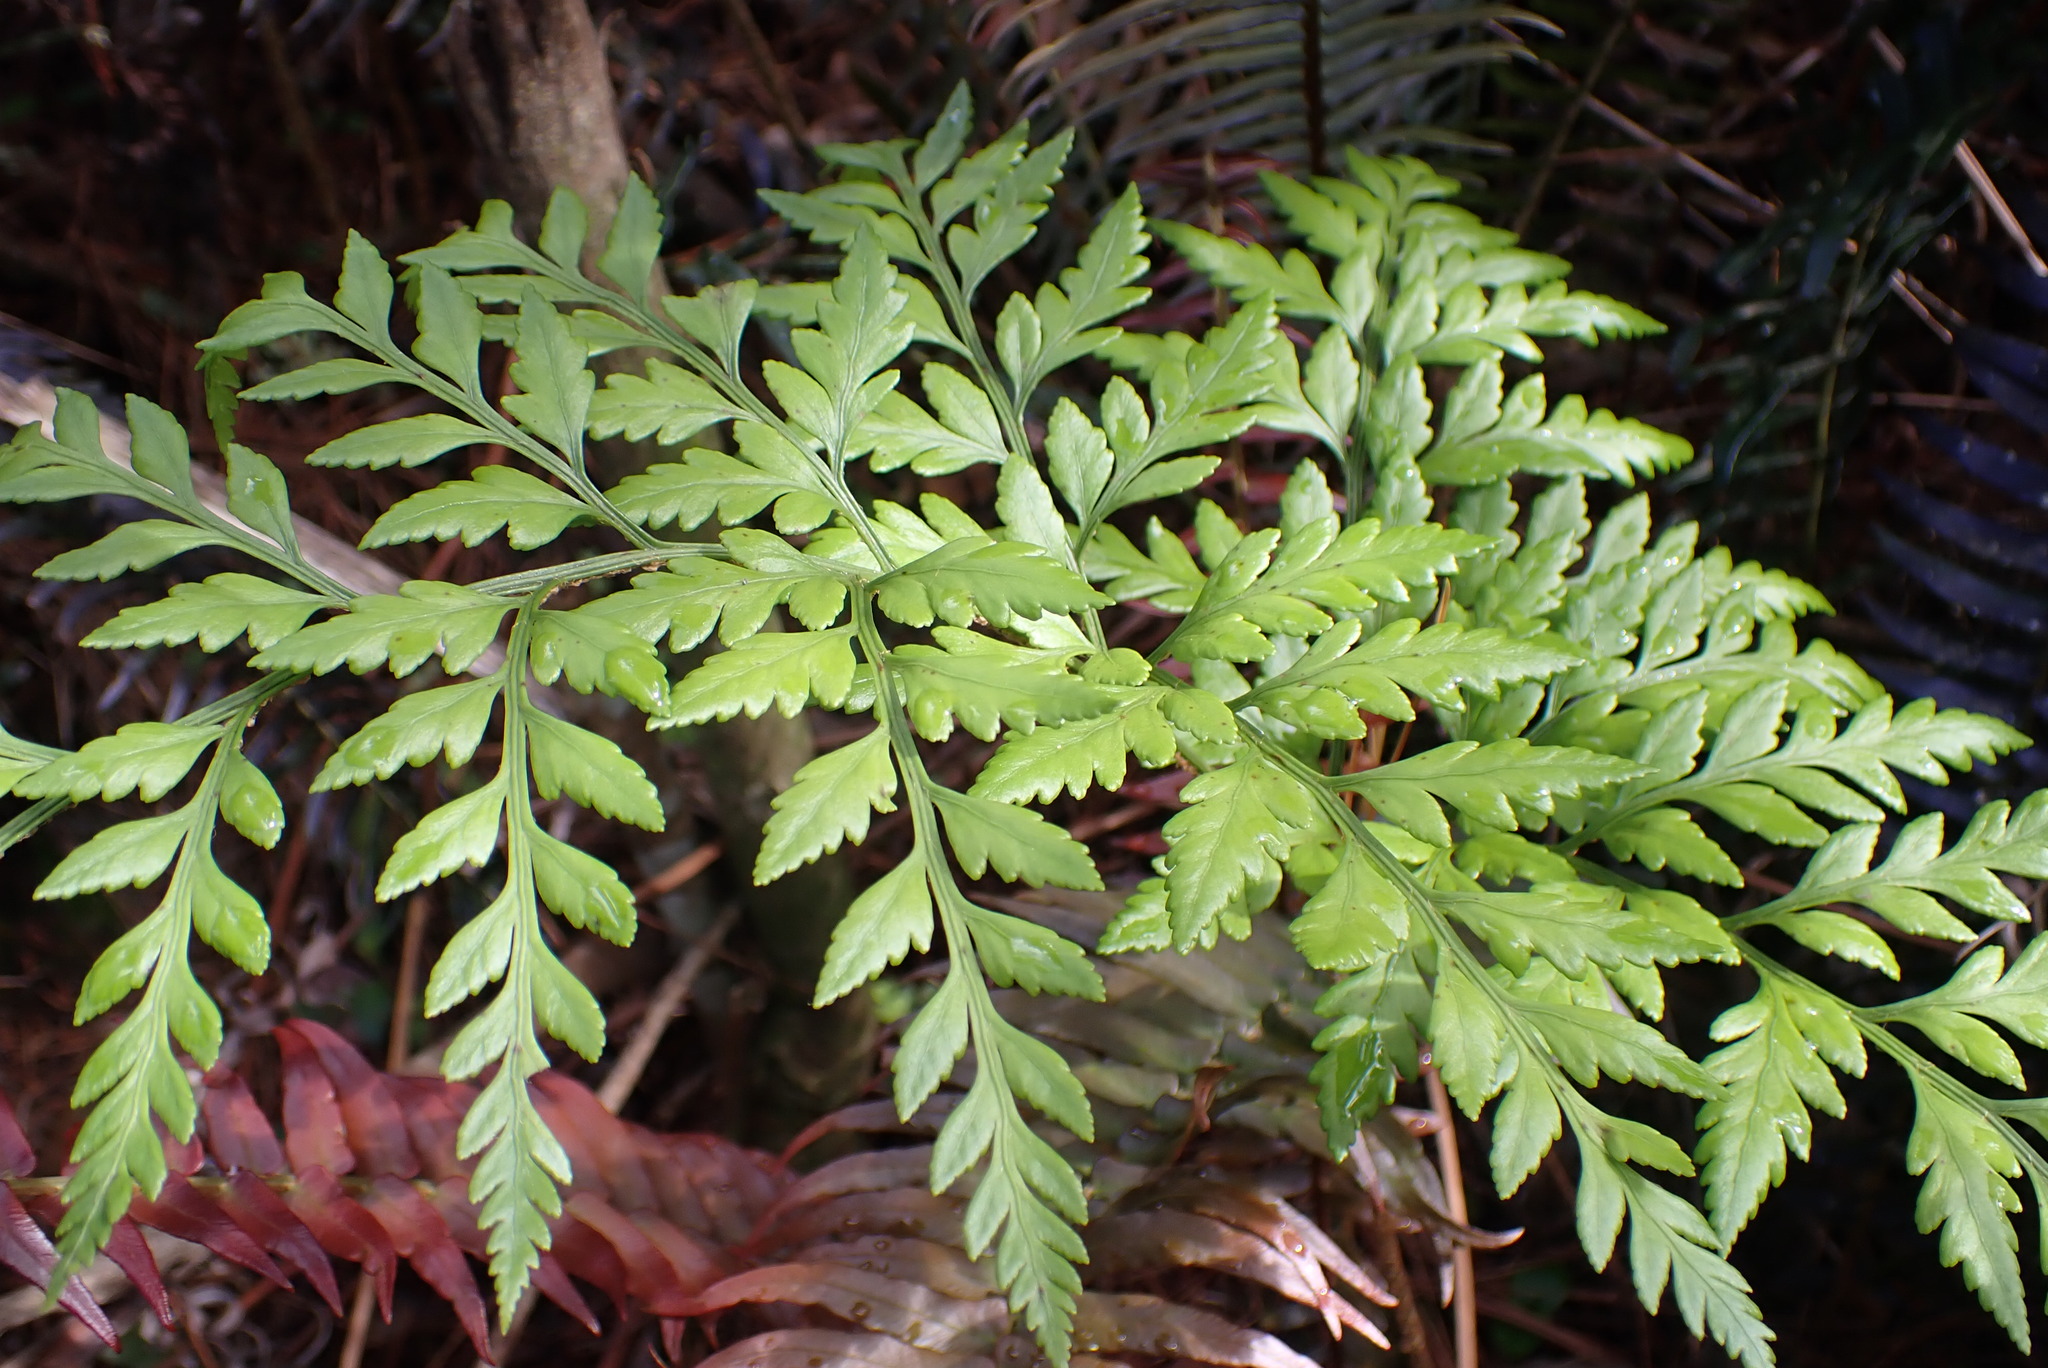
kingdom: Plantae
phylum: Tracheophyta
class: Polypodiopsida
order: Polypodiales
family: Dryopteridaceae
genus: Rumohra
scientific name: Rumohra adiantiformis
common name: Leather fern
